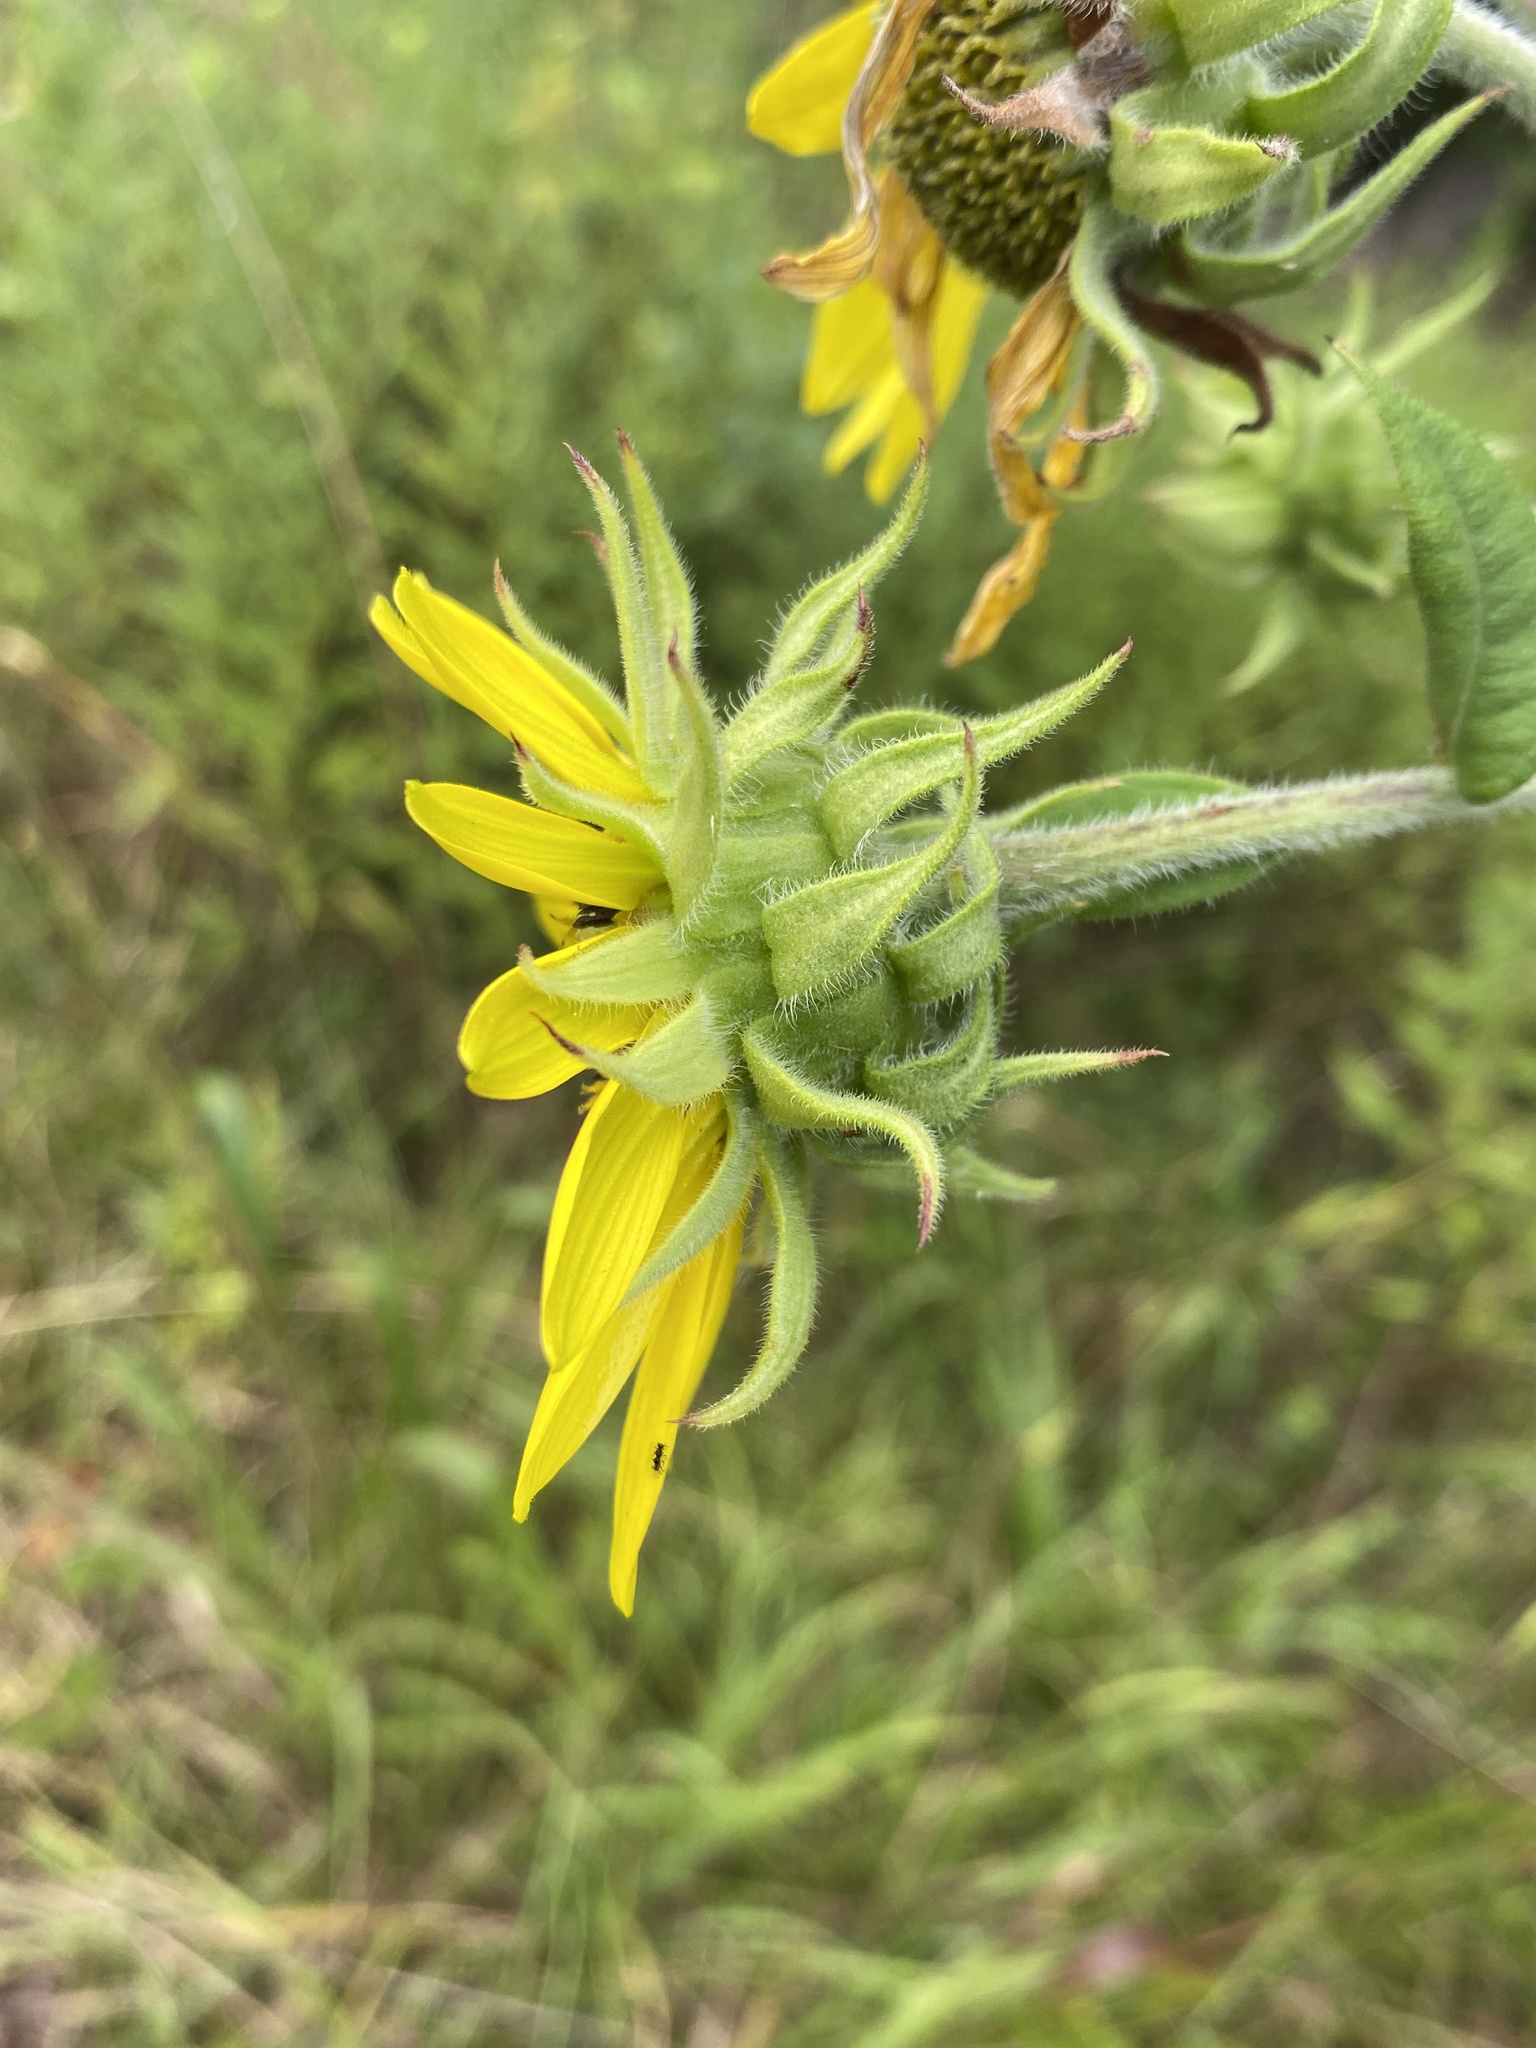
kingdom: Plantae
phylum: Tracheophyta
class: Magnoliopsida
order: Asterales
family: Asteraceae
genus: Helianthus
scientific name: Helianthus giganteus
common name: Giant sunflower
